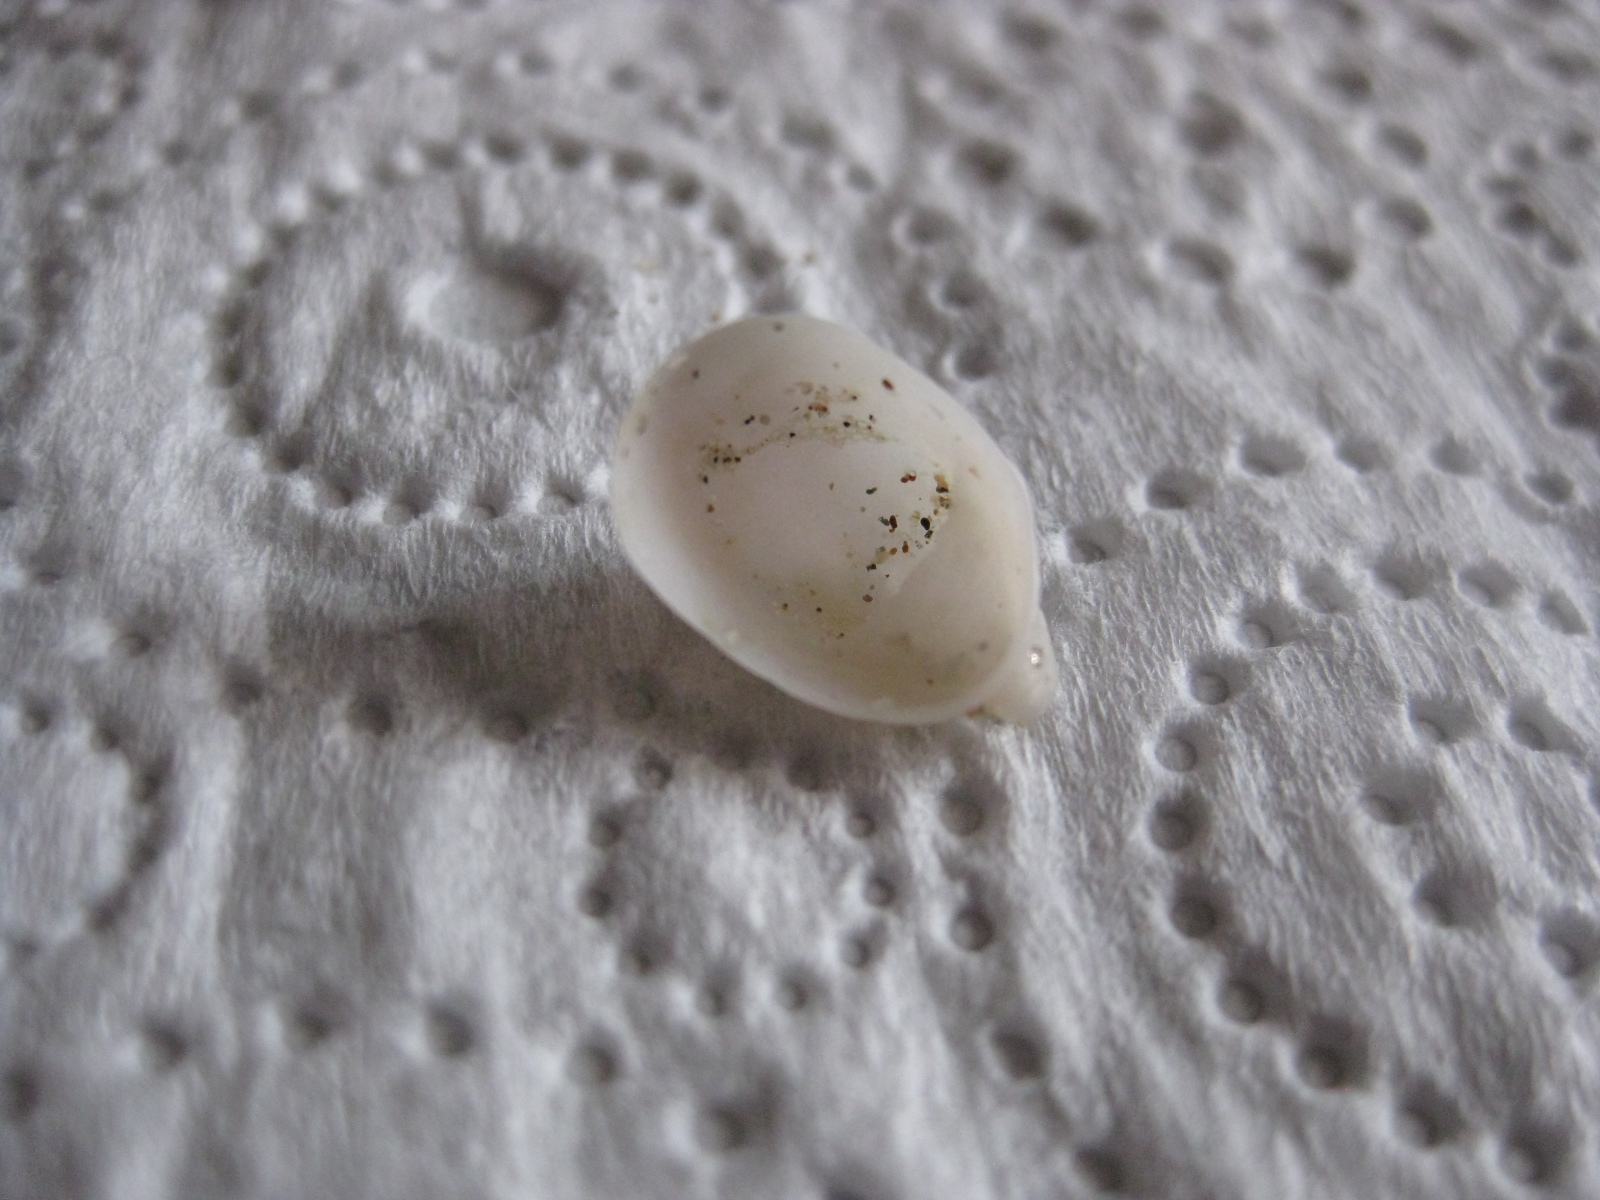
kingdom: Animalia
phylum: Mollusca
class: Gastropoda
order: Littorinimorpha
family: Calyptraeidae
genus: Maoricrypta
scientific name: Maoricrypta monoxyla
